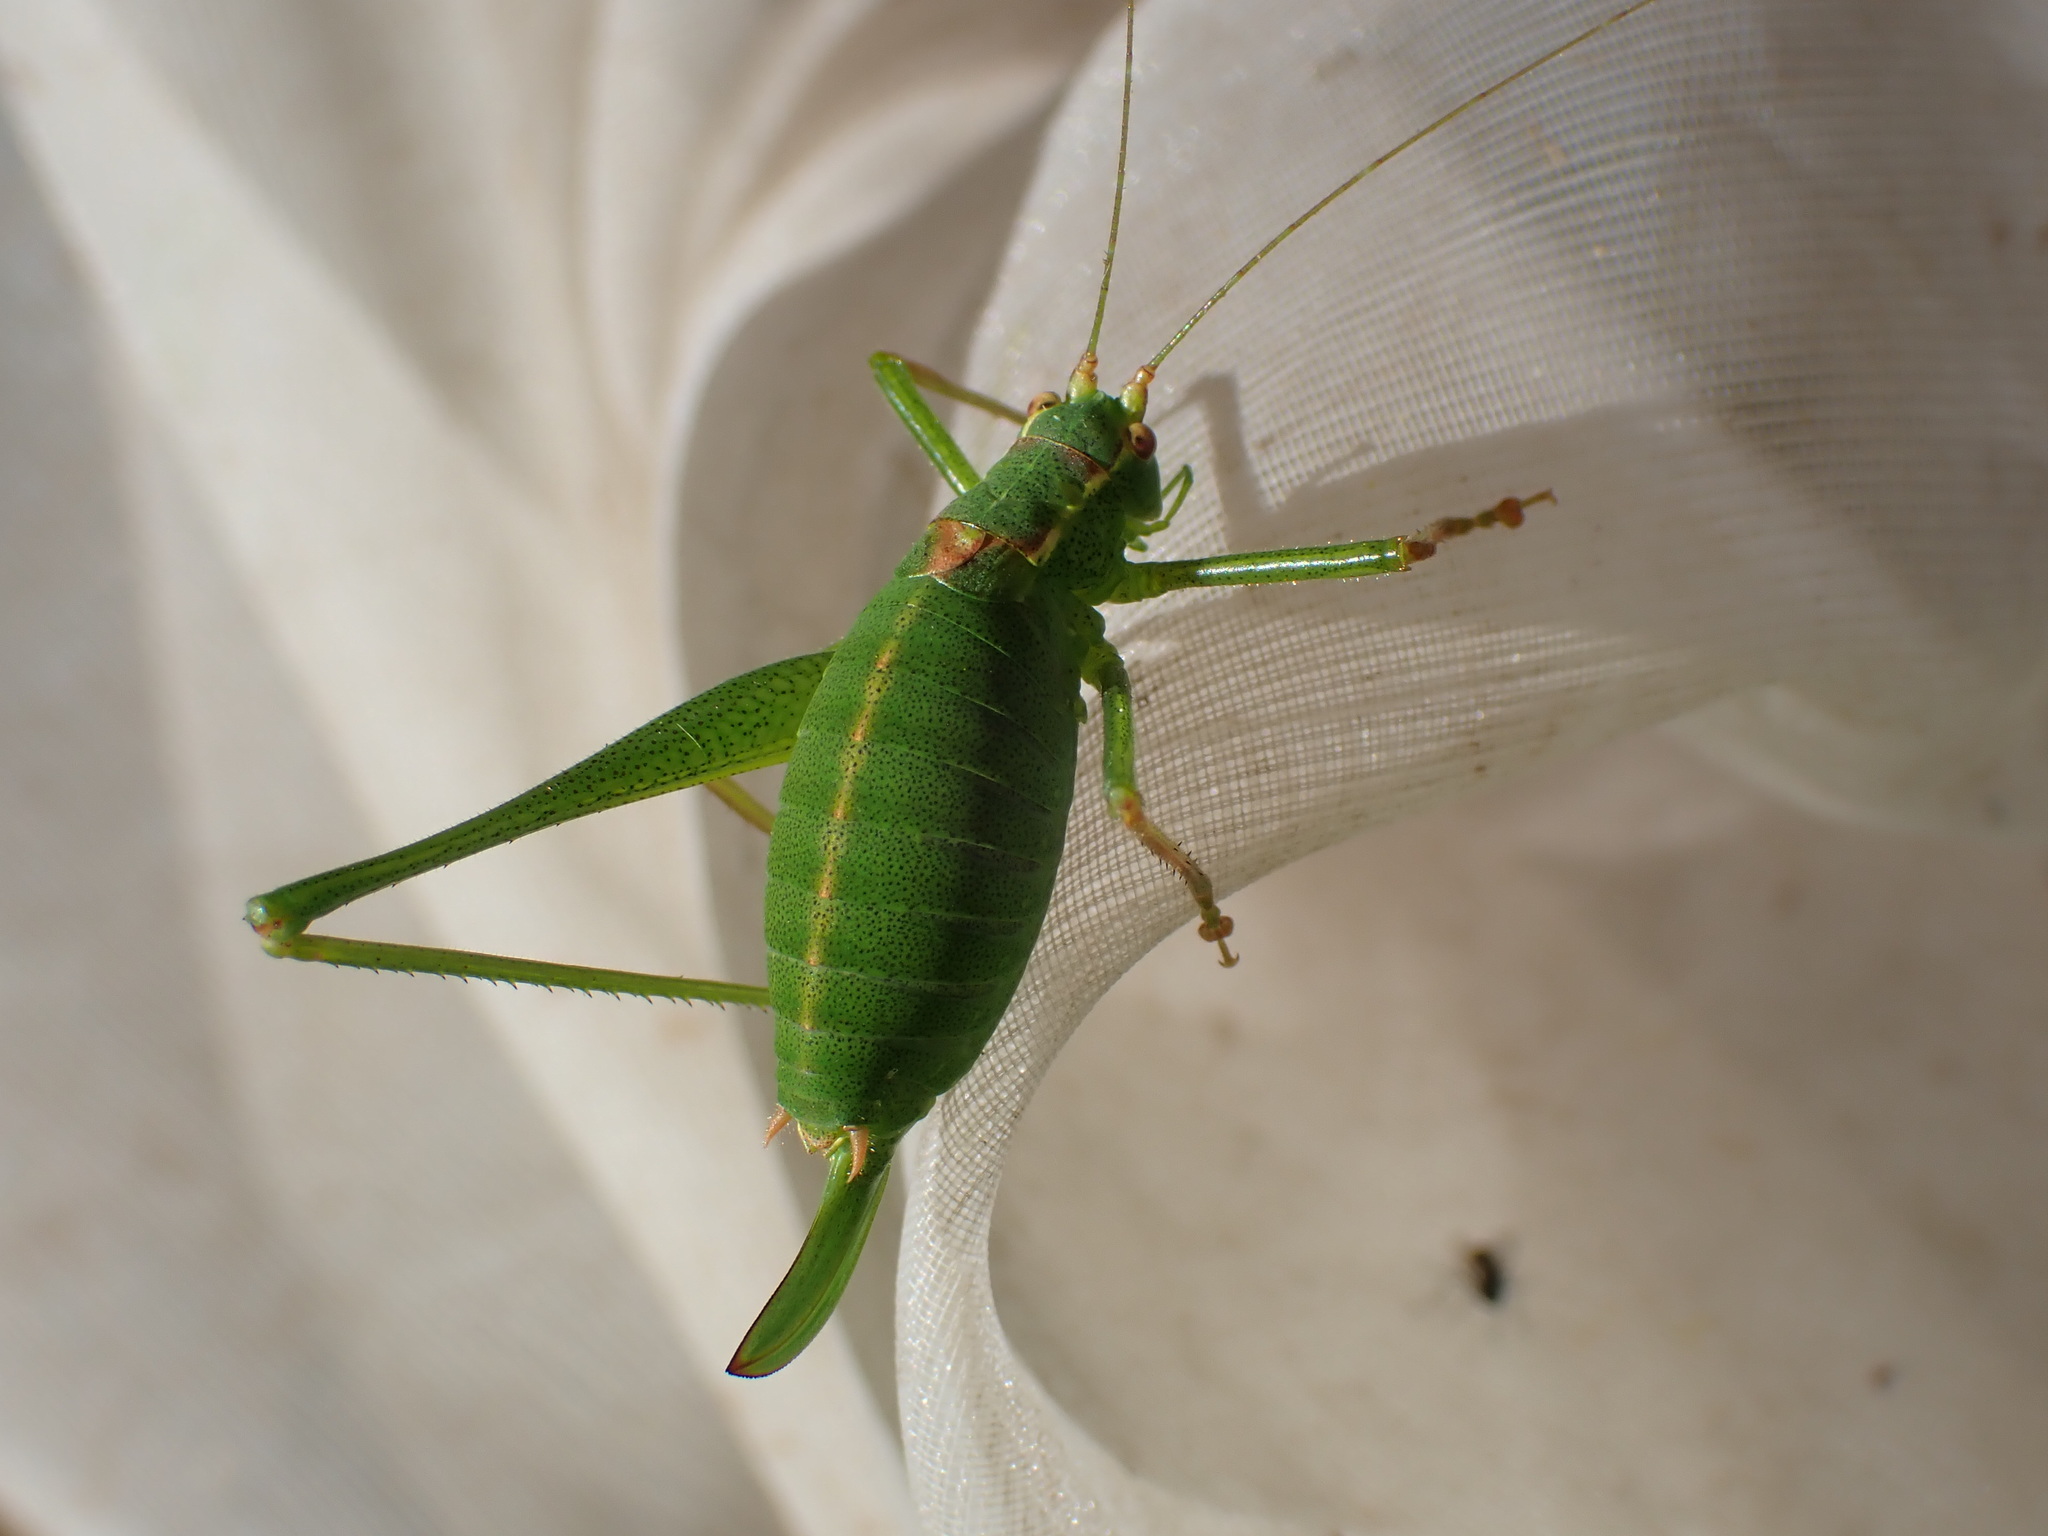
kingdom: Animalia
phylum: Arthropoda
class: Insecta
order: Orthoptera
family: Tettigoniidae
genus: Leptophyes
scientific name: Leptophyes punctatissima
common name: Speckled bush-cricket
